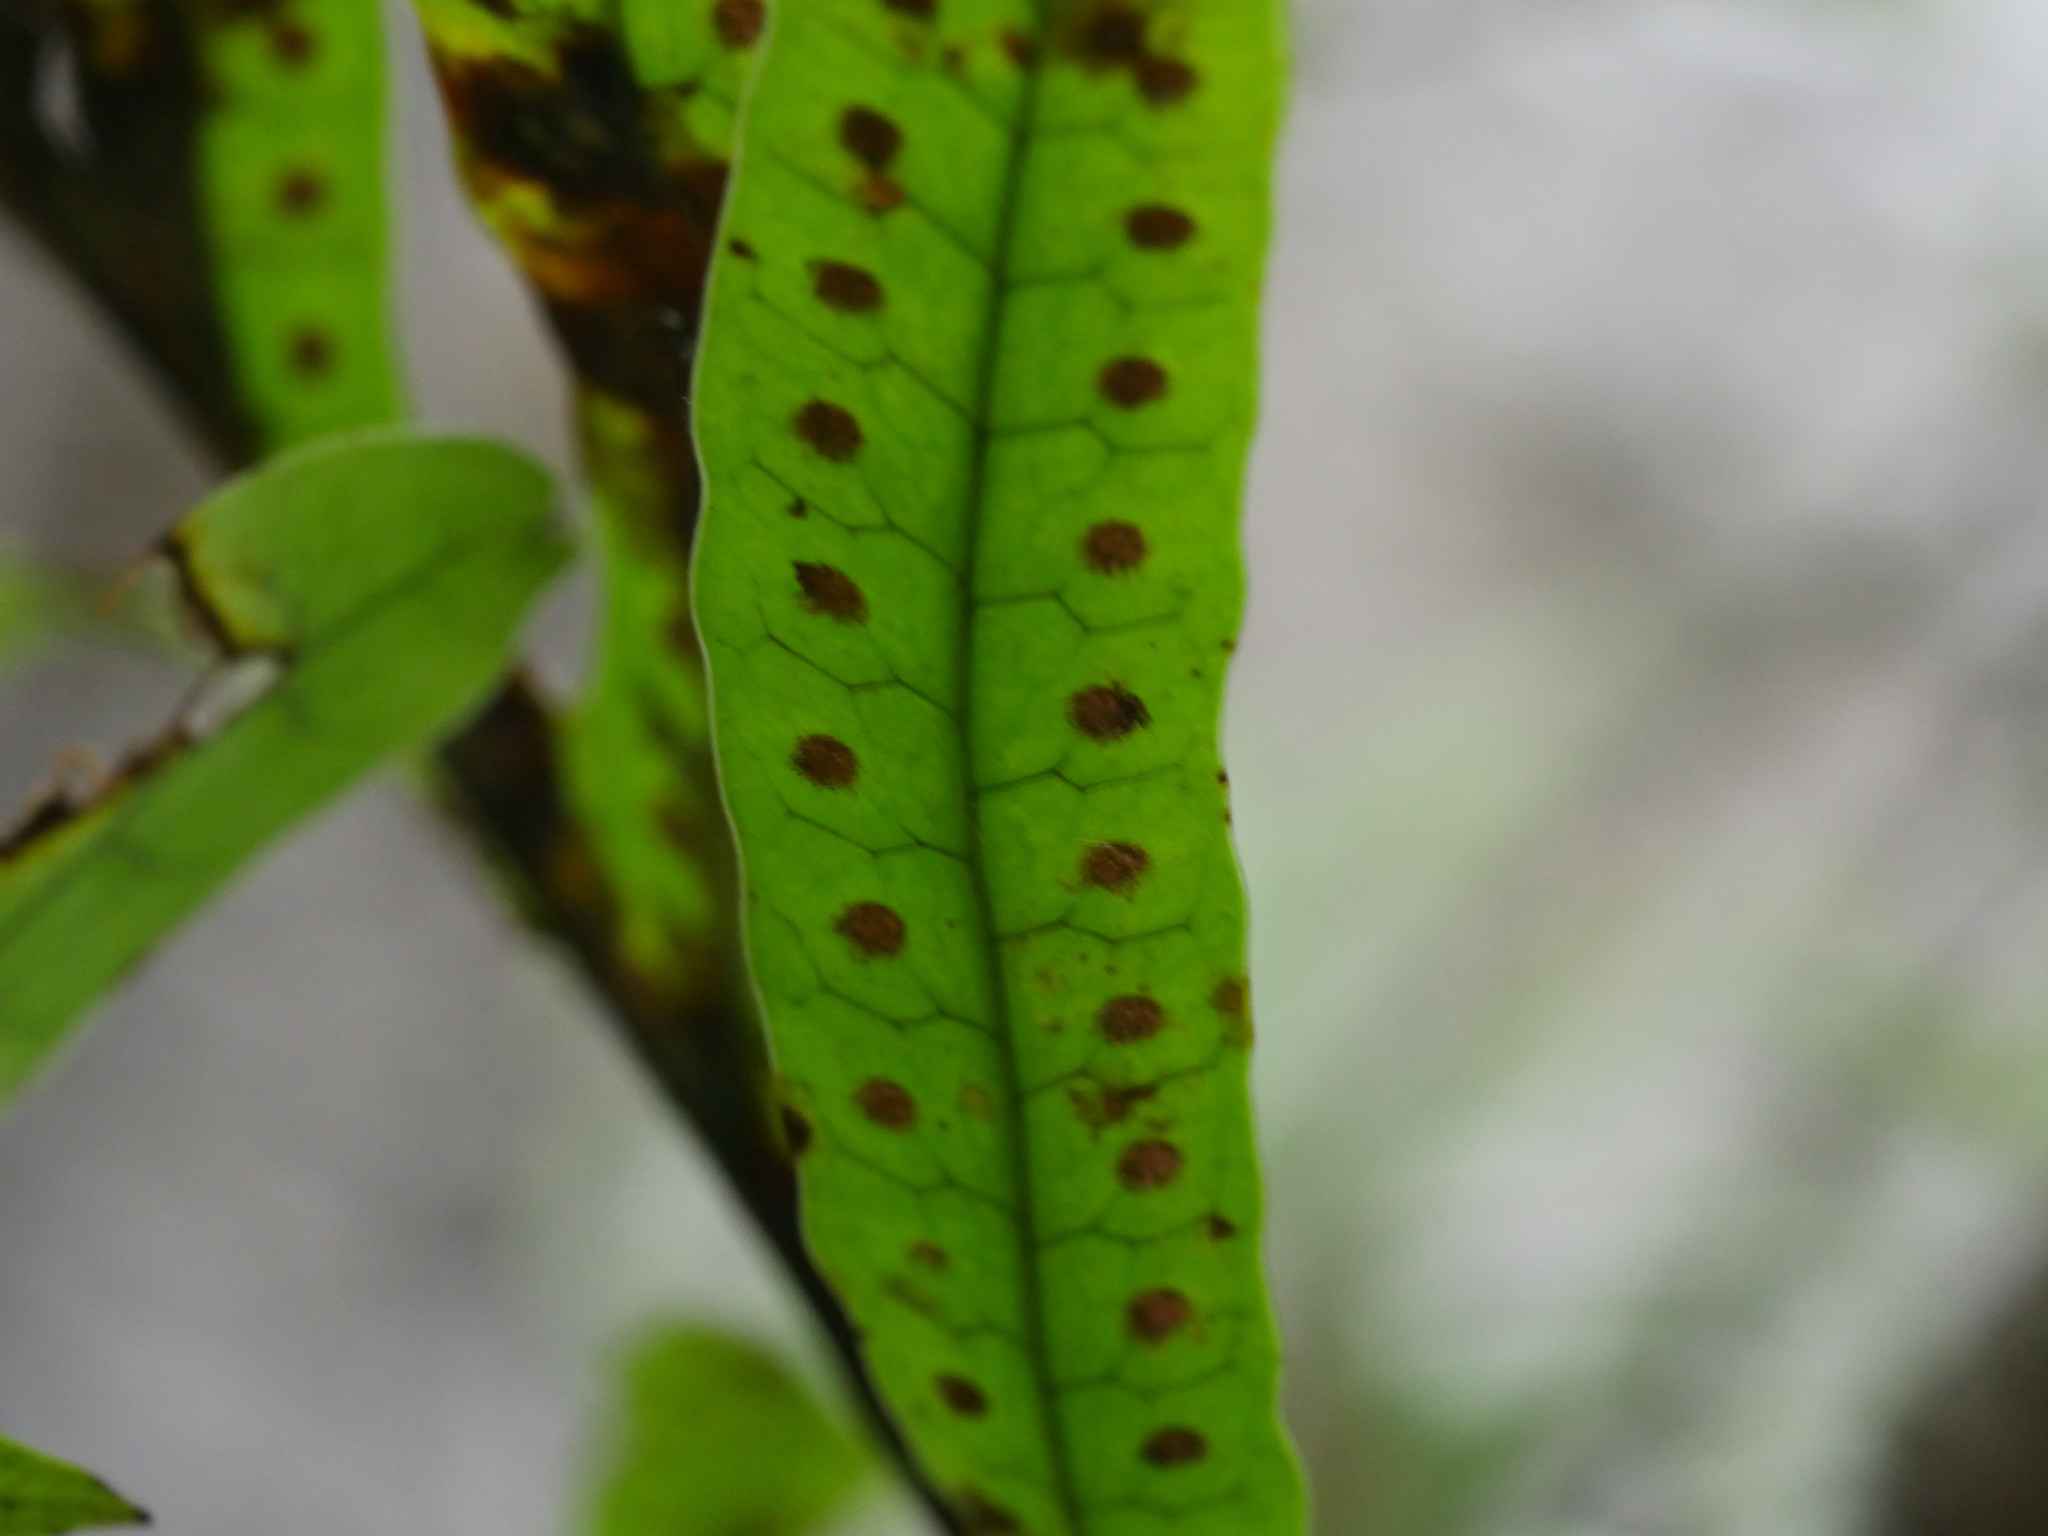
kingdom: Plantae
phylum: Tracheophyta
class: Polypodiopsida
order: Polypodiales
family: Polypodiaceae
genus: Lecanopteris
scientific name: Lecanopteris pustulata
